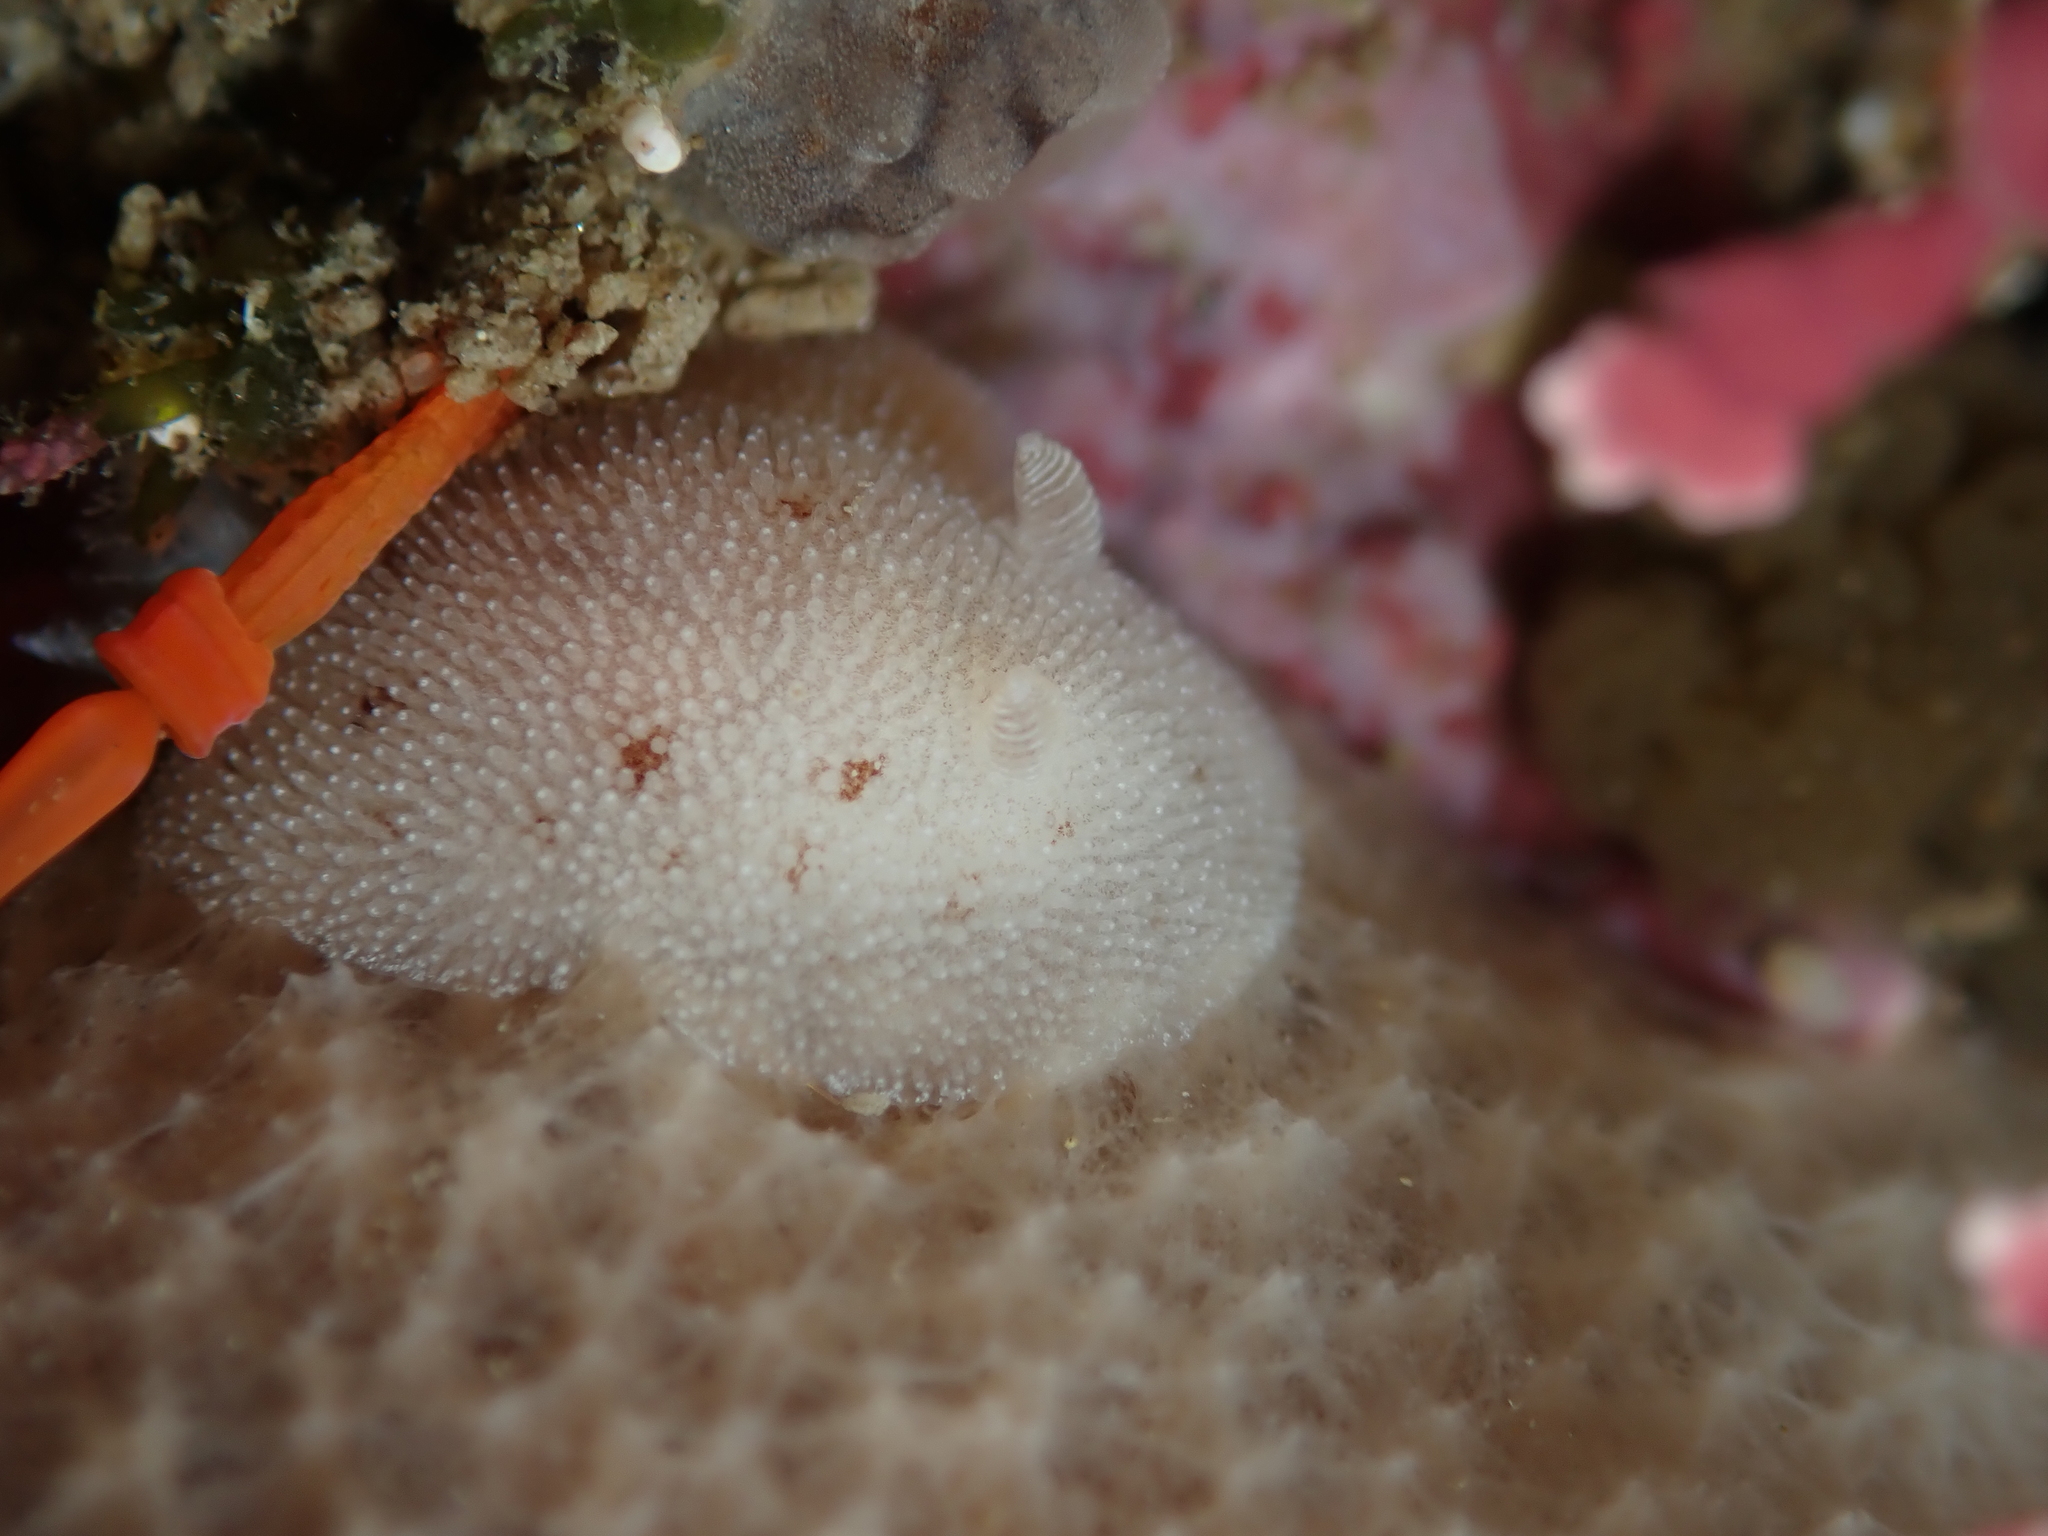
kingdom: Animalia
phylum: Mollusca
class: Gastropoda
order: Nudibranchia
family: Discodorididae
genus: Alloiodoris
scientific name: Alloiodoris lanuginata
